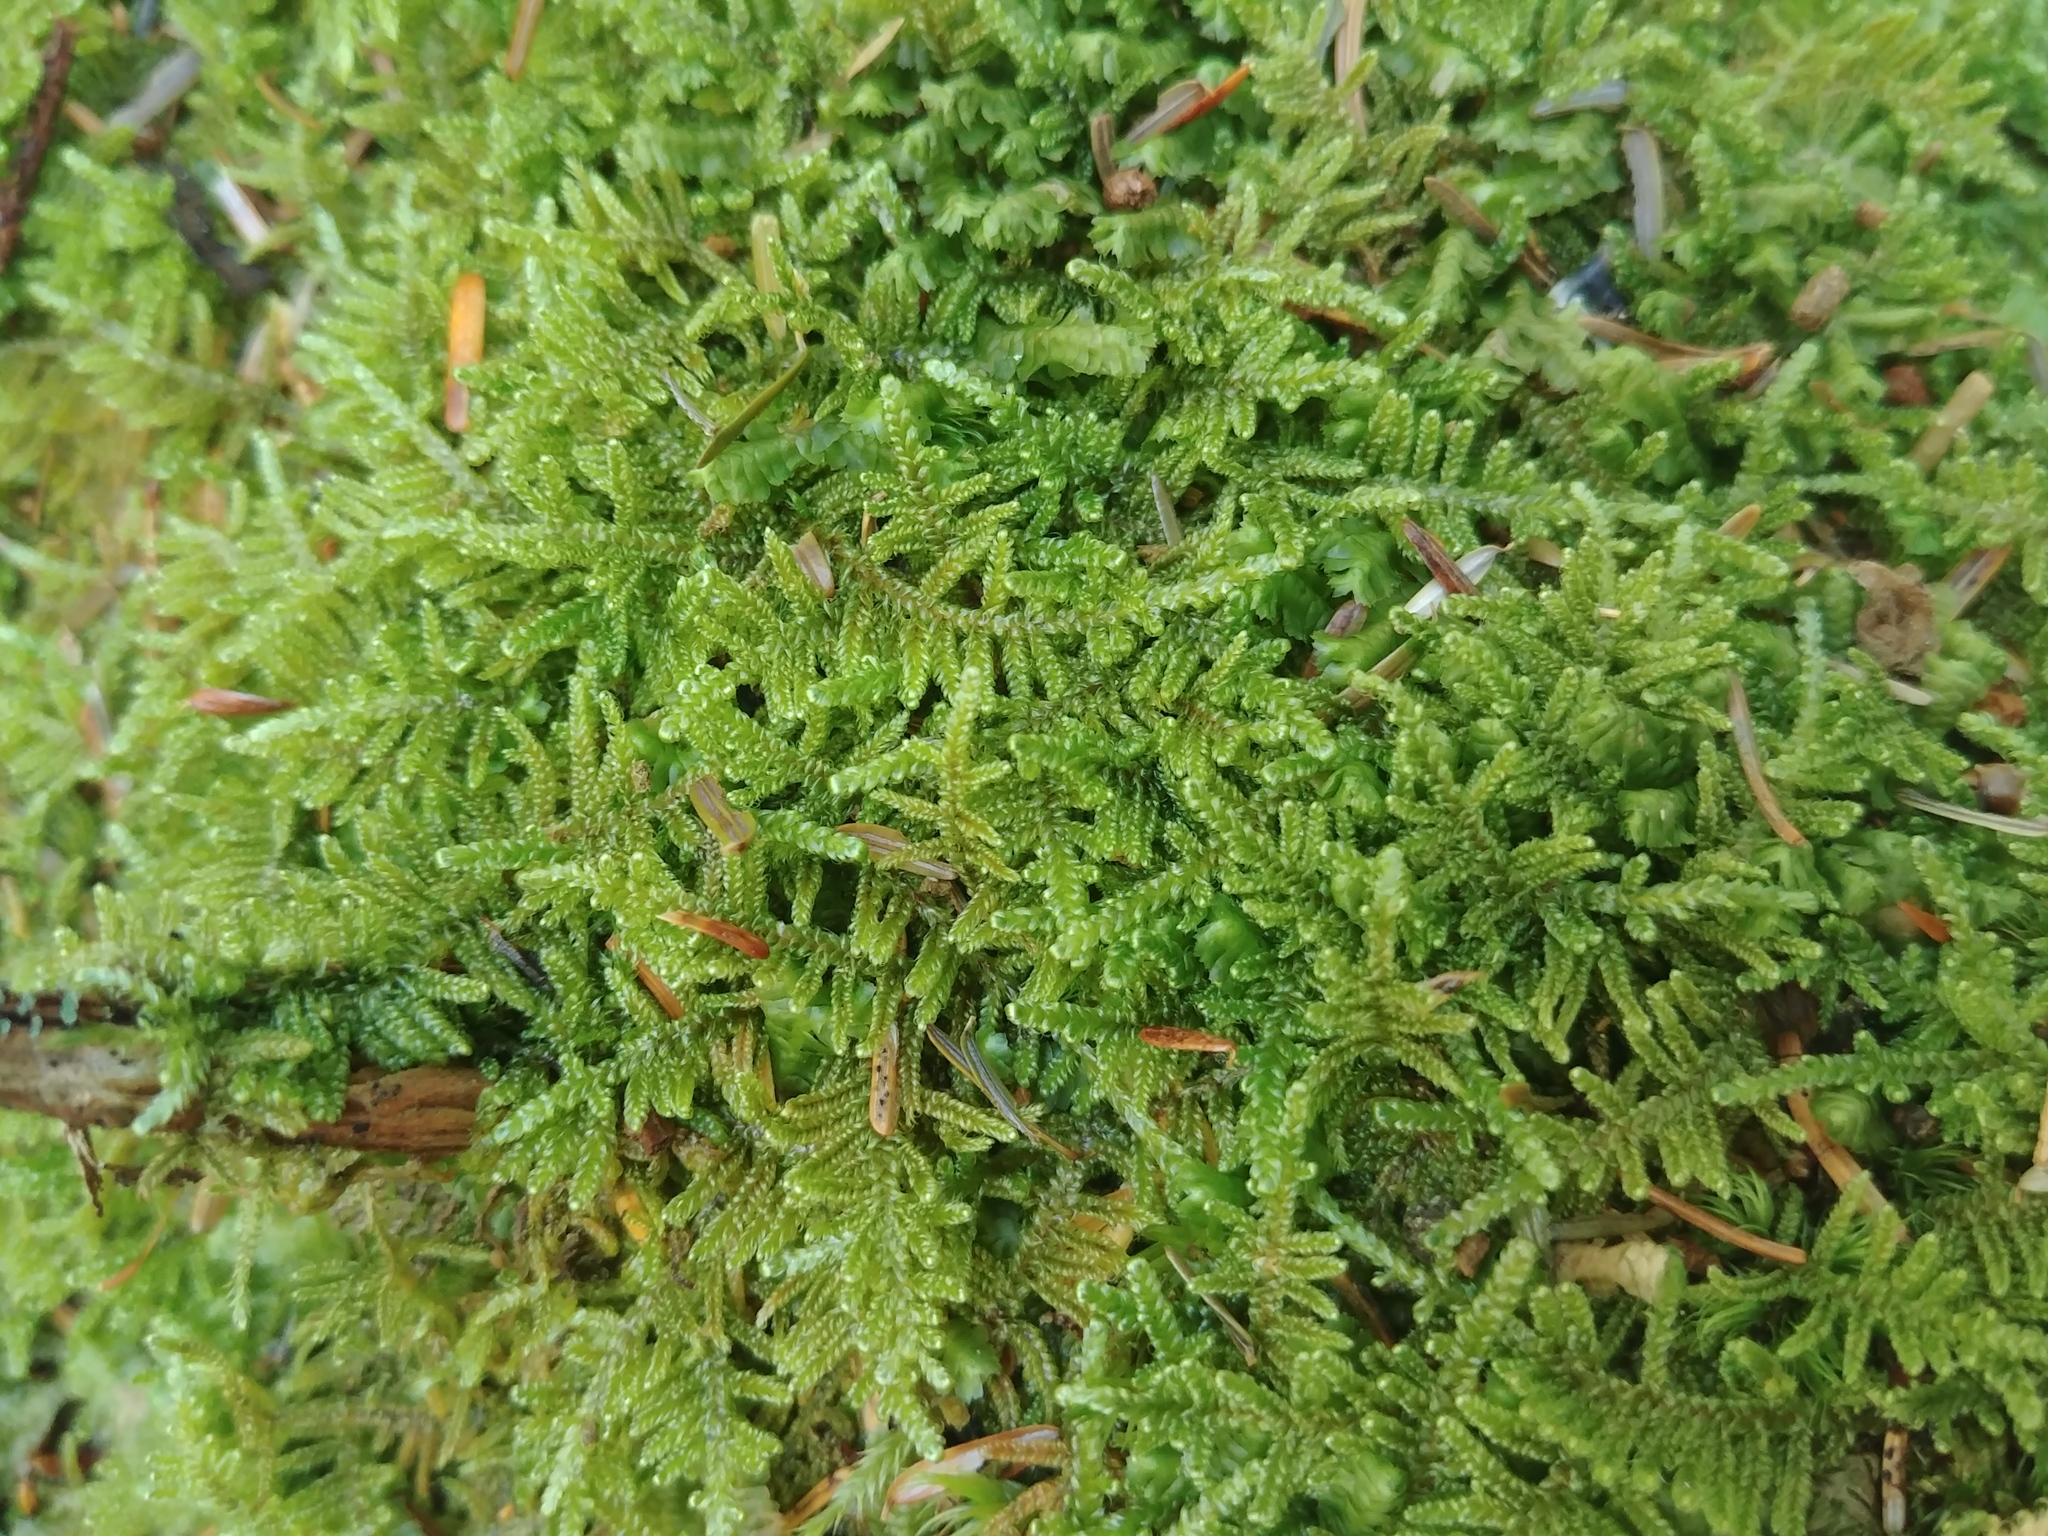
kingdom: Plantae
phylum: Bryophyta
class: Bryopsida
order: Hypnales
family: Callicladiaceae
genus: Callicladium
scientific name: Callicladium imponens
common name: Brocade moss
